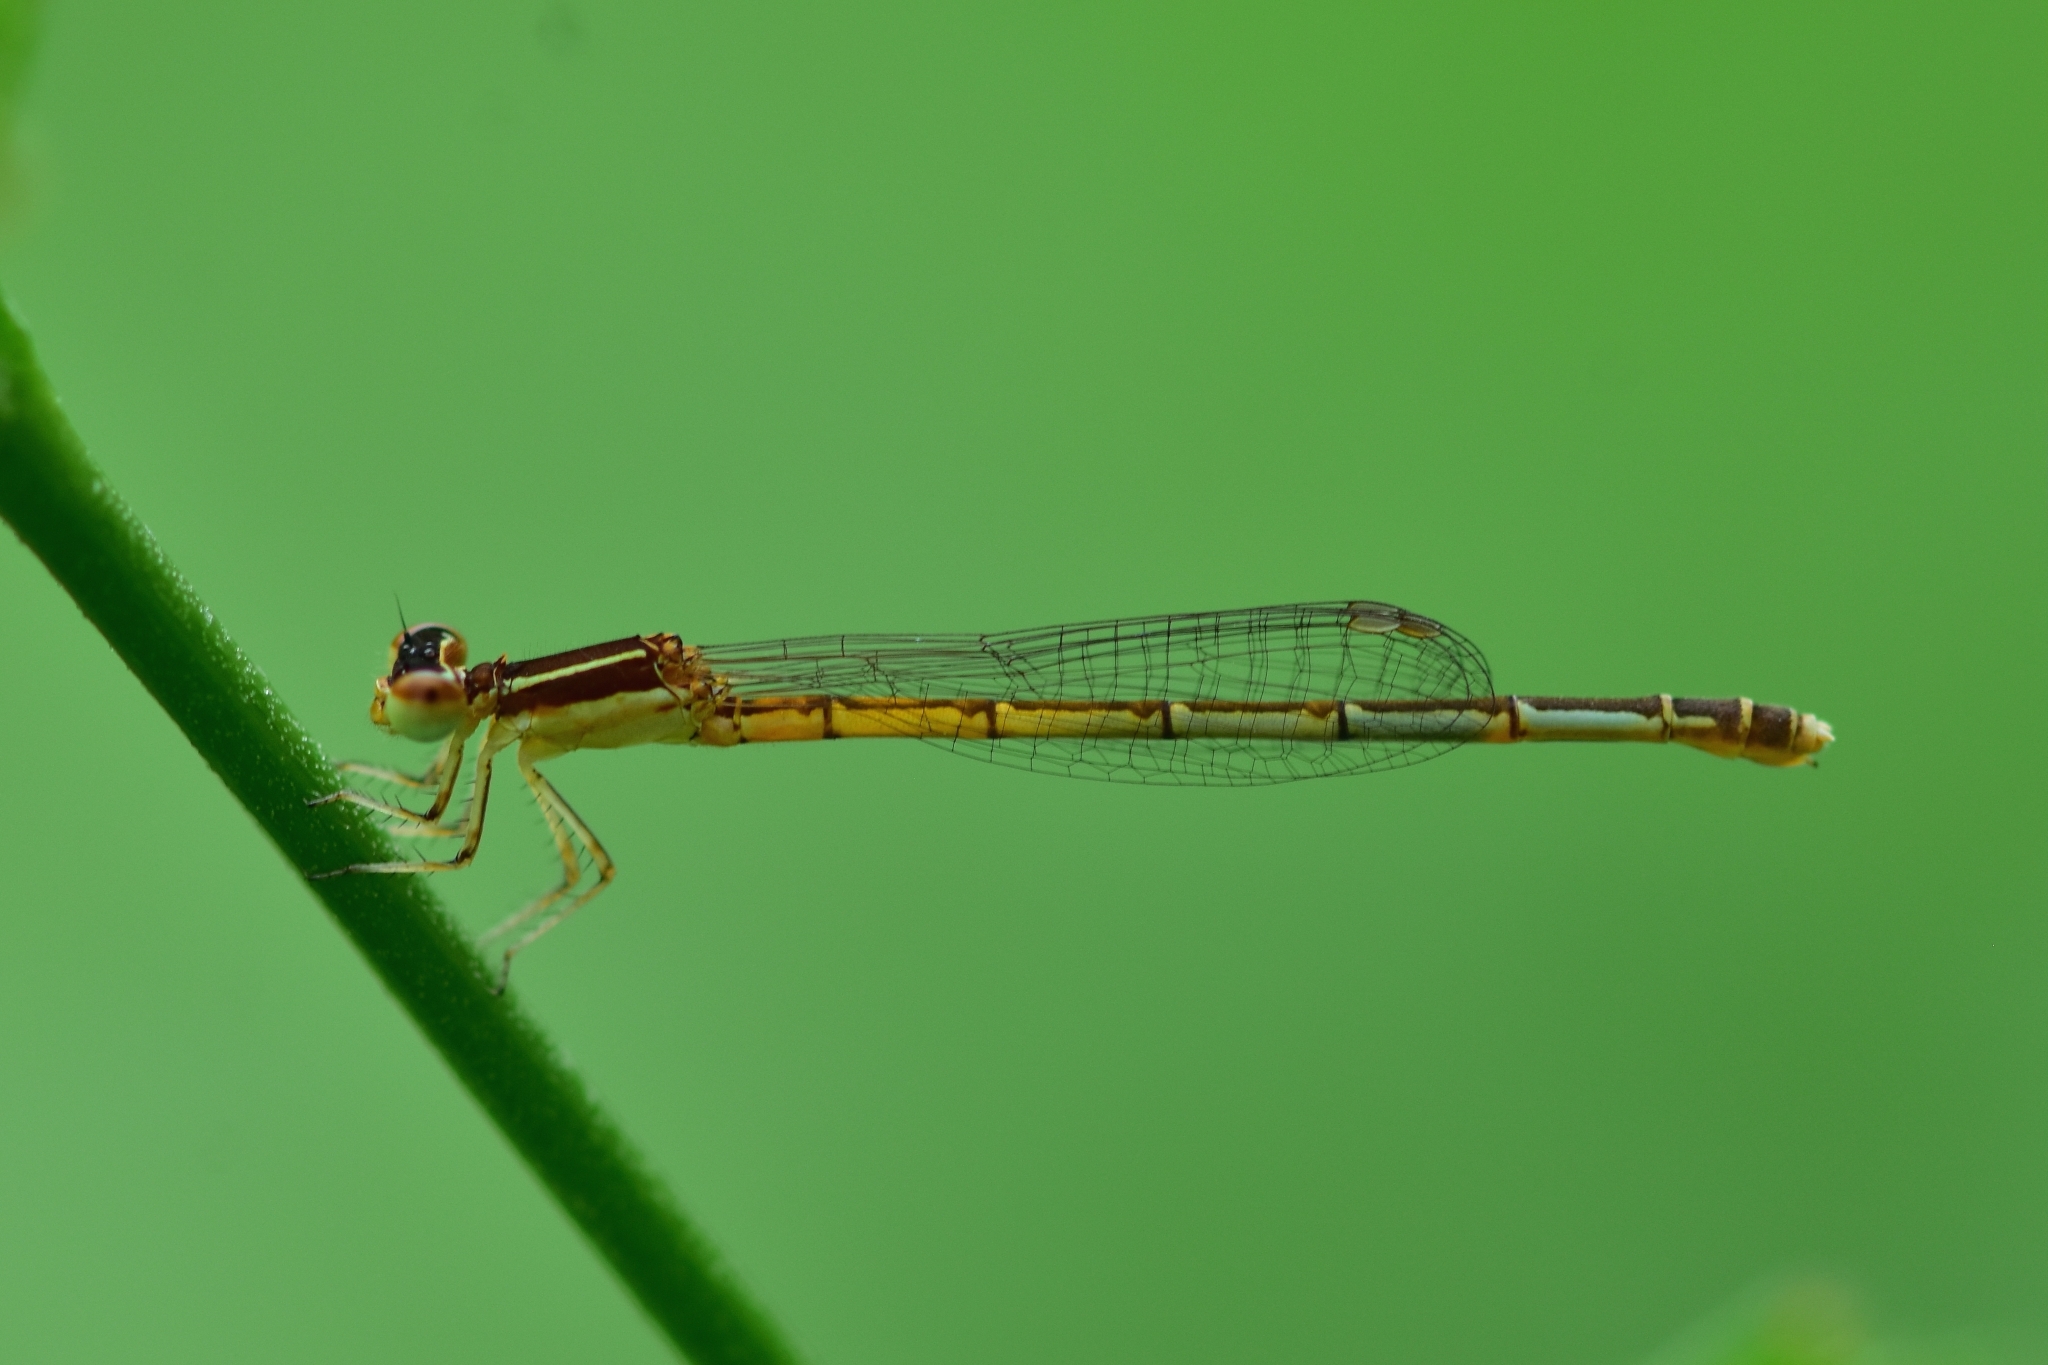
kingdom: Animalia
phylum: Arthropoda
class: Insecta
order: Odonata
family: Coenagrionidae
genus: Agriocnemis
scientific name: Agriocnemis pieris
